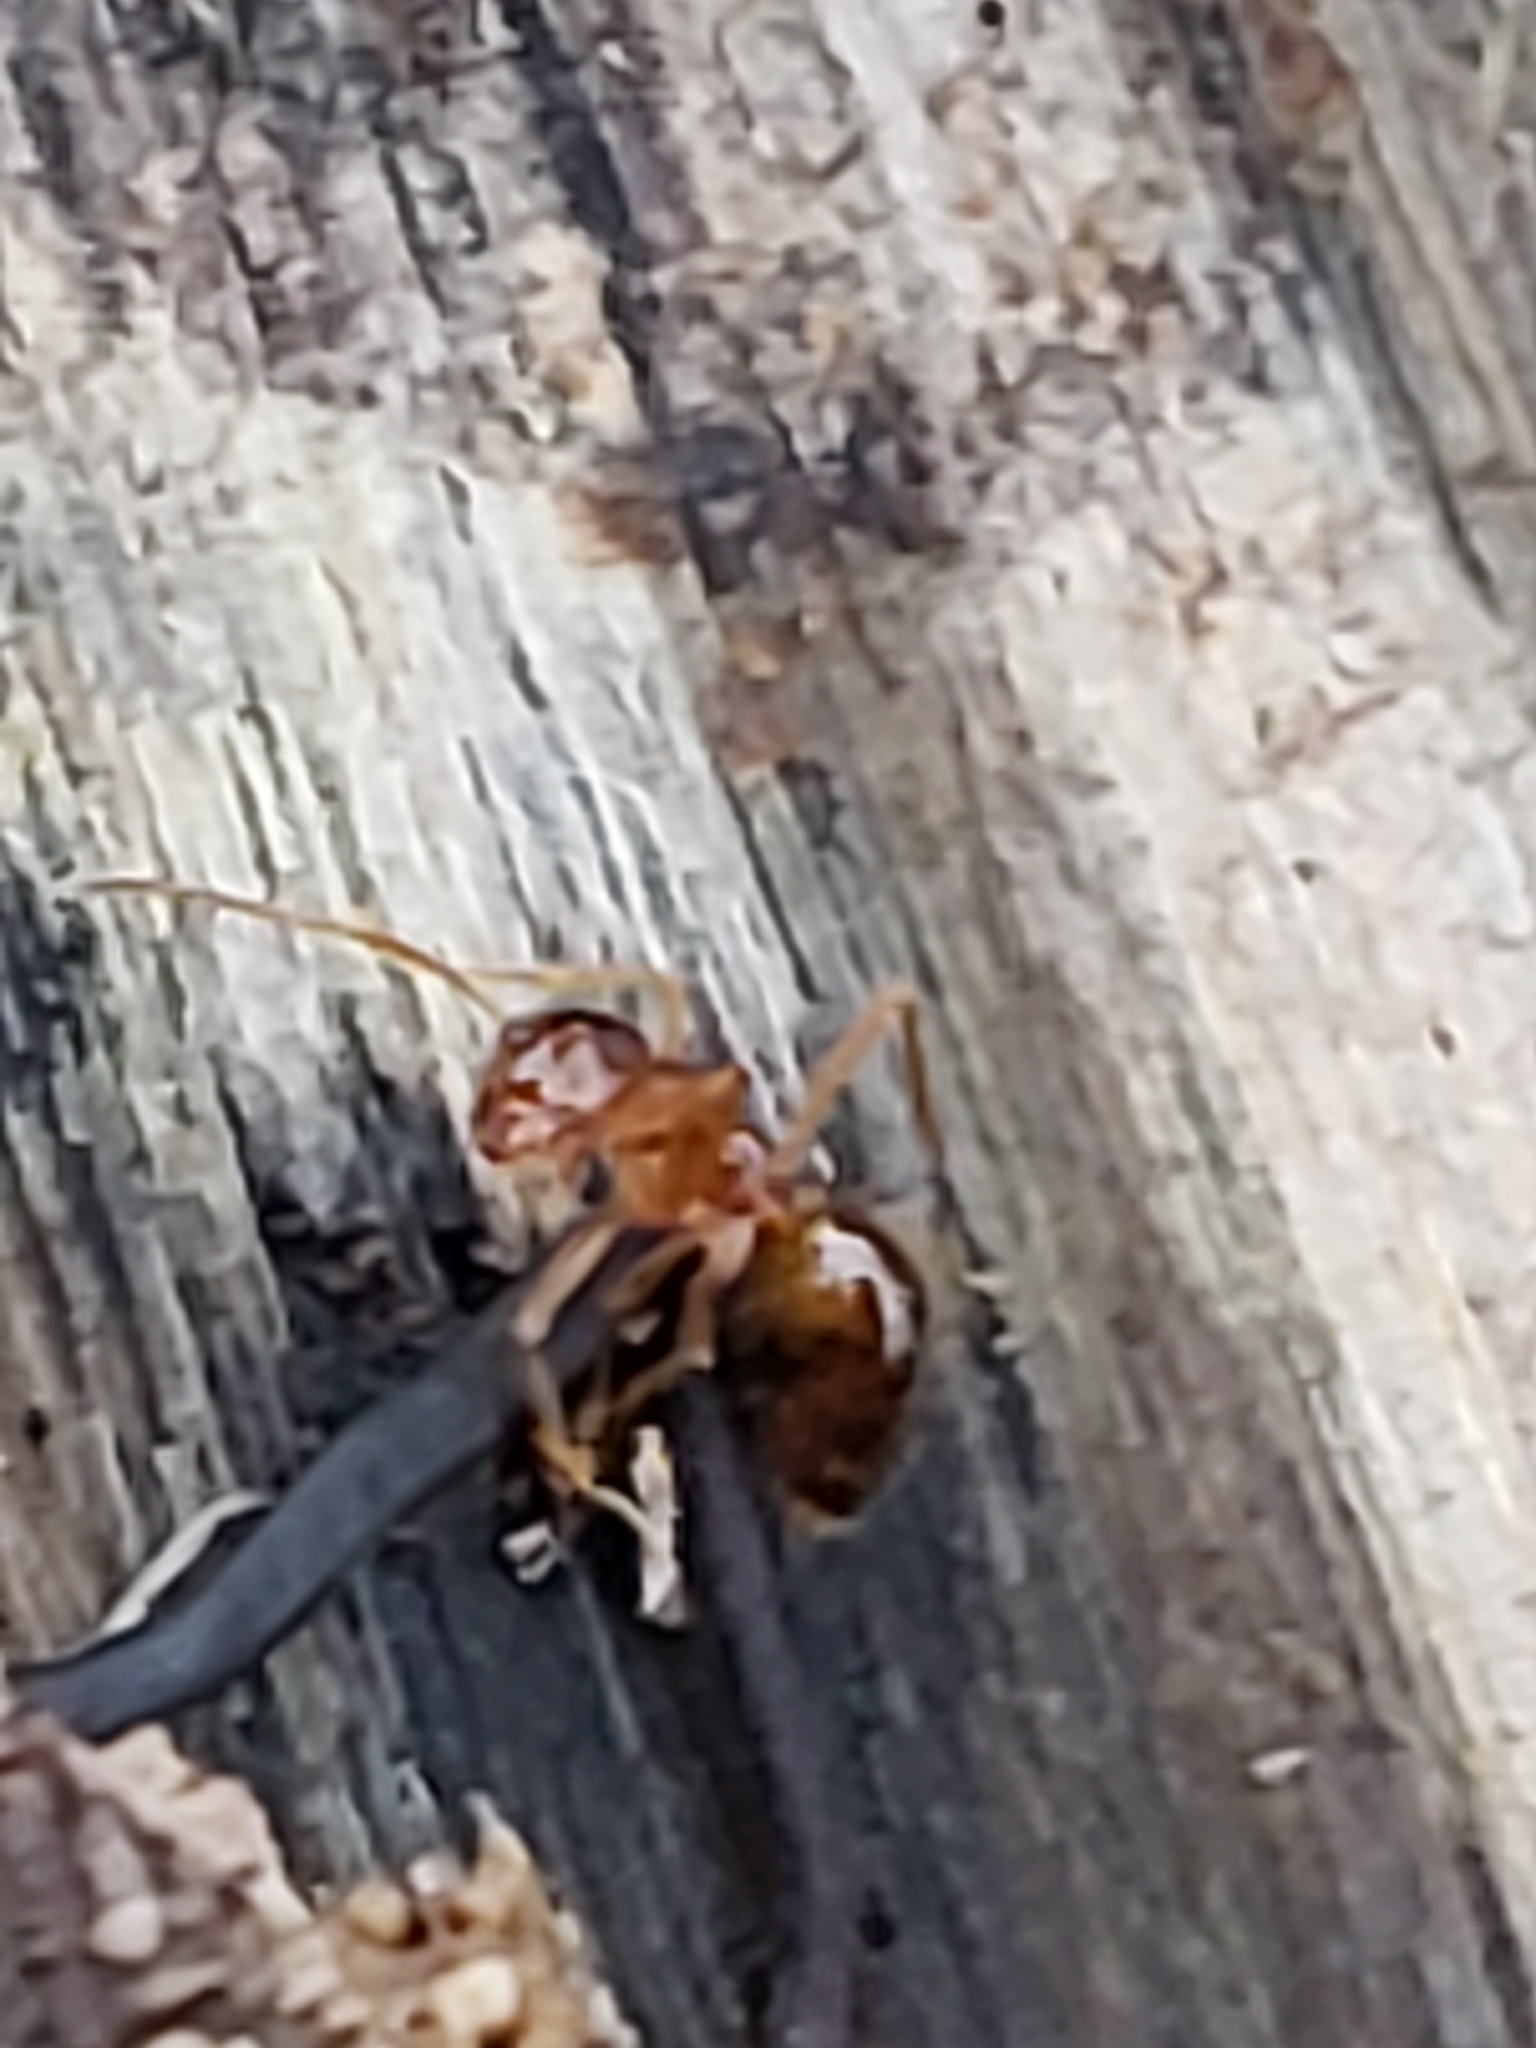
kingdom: Animalia
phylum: Arthropoda
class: Insecta
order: Hymenoptera
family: Formicidae
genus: Prenolepis
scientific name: Prenolepis imparis
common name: Small honey ant
